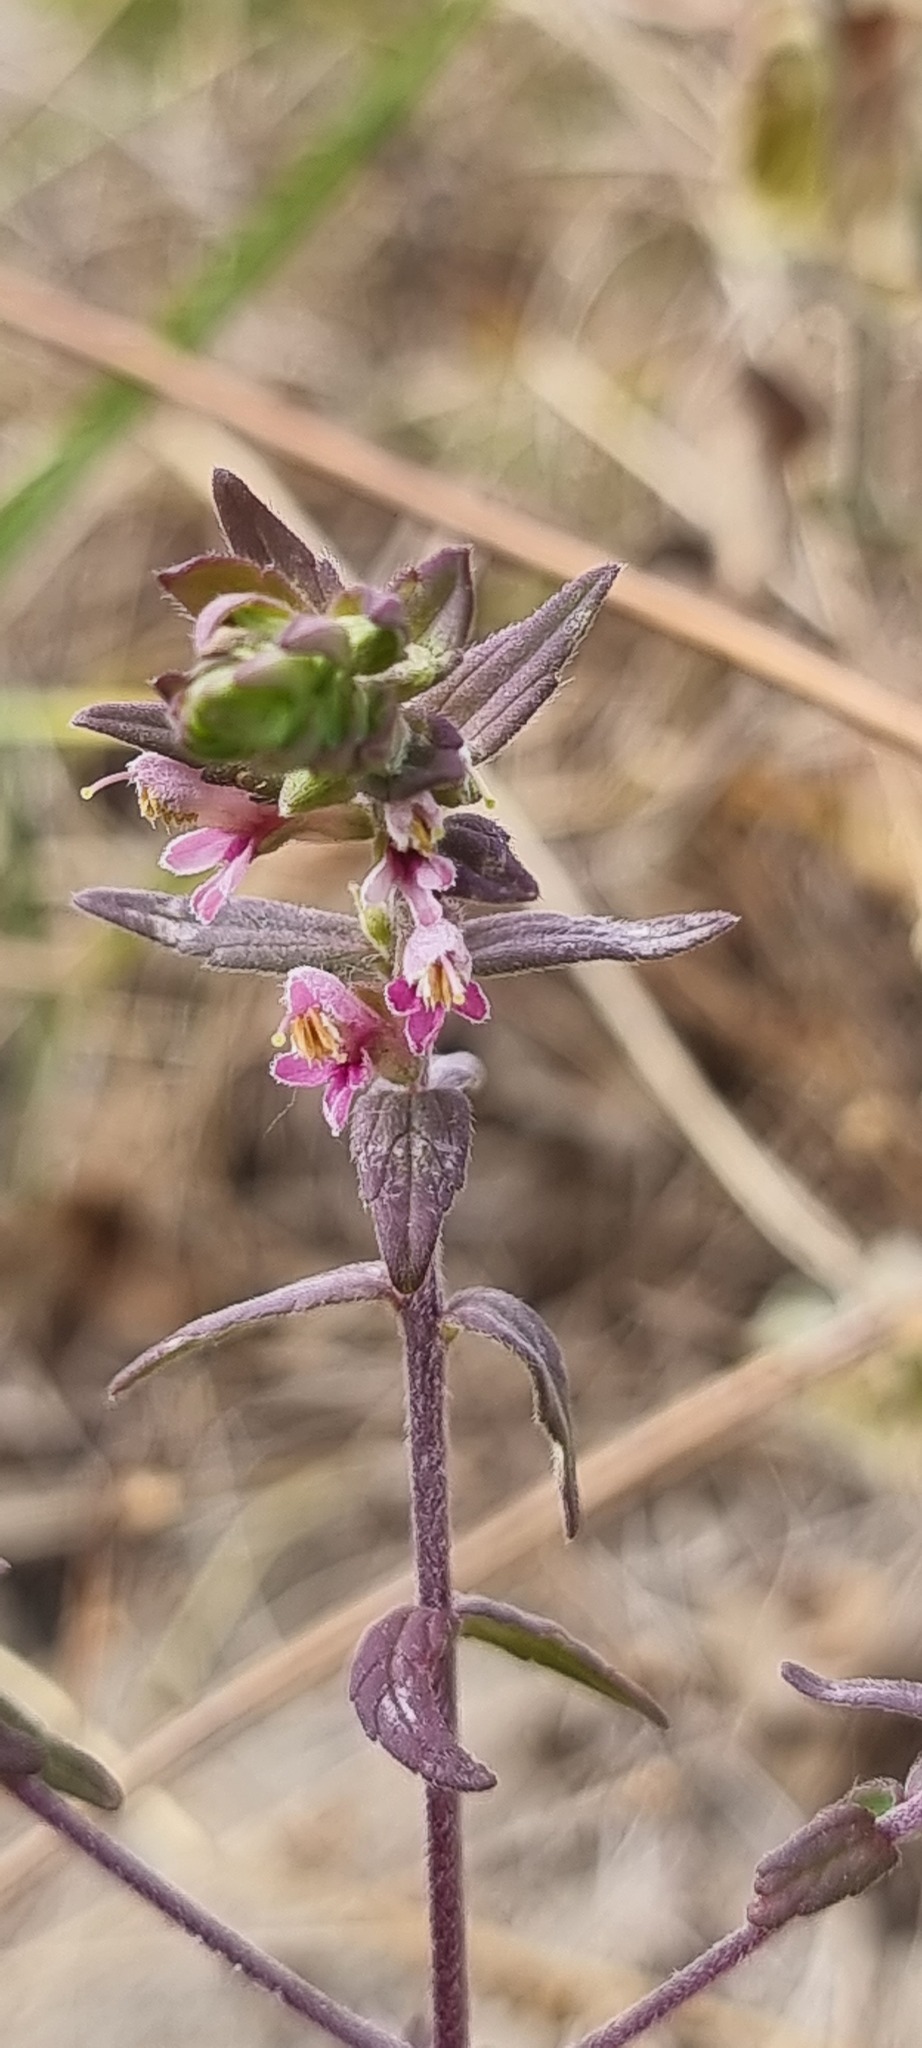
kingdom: Plantae
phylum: Tracheophyta
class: Magnoliopsida
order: Lamiales
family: Orobanchaceae
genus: Odontites
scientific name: Odontites vernus
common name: Red bartsia
